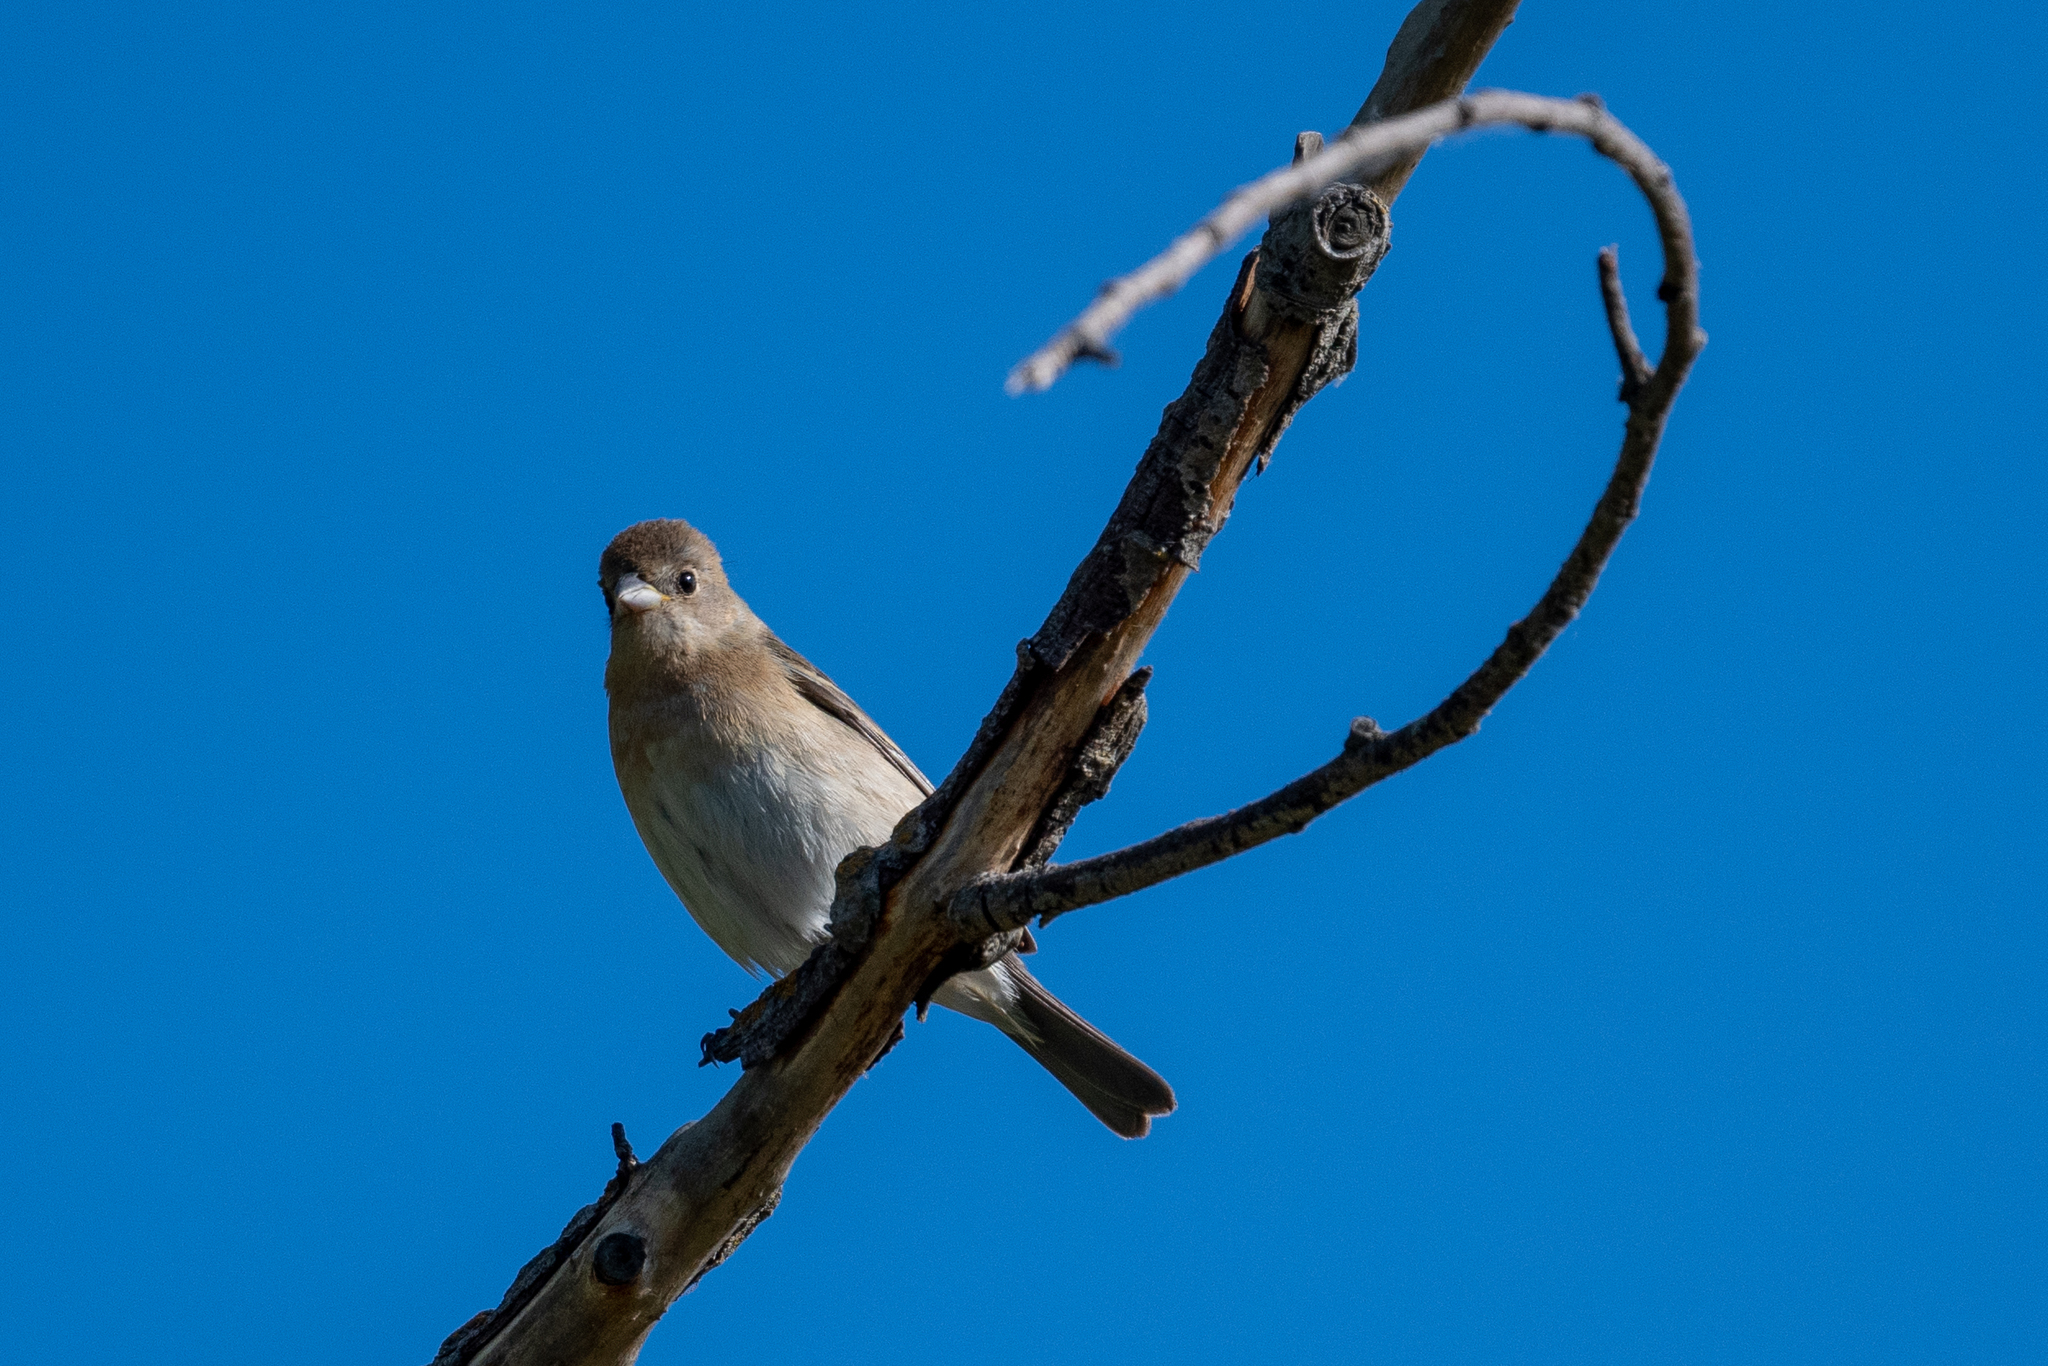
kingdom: Animalia
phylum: Chordata
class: Aves
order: Passeriformes
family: Cardinalidae
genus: Passerina
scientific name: Passerina amoena
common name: Lazuli bunting
